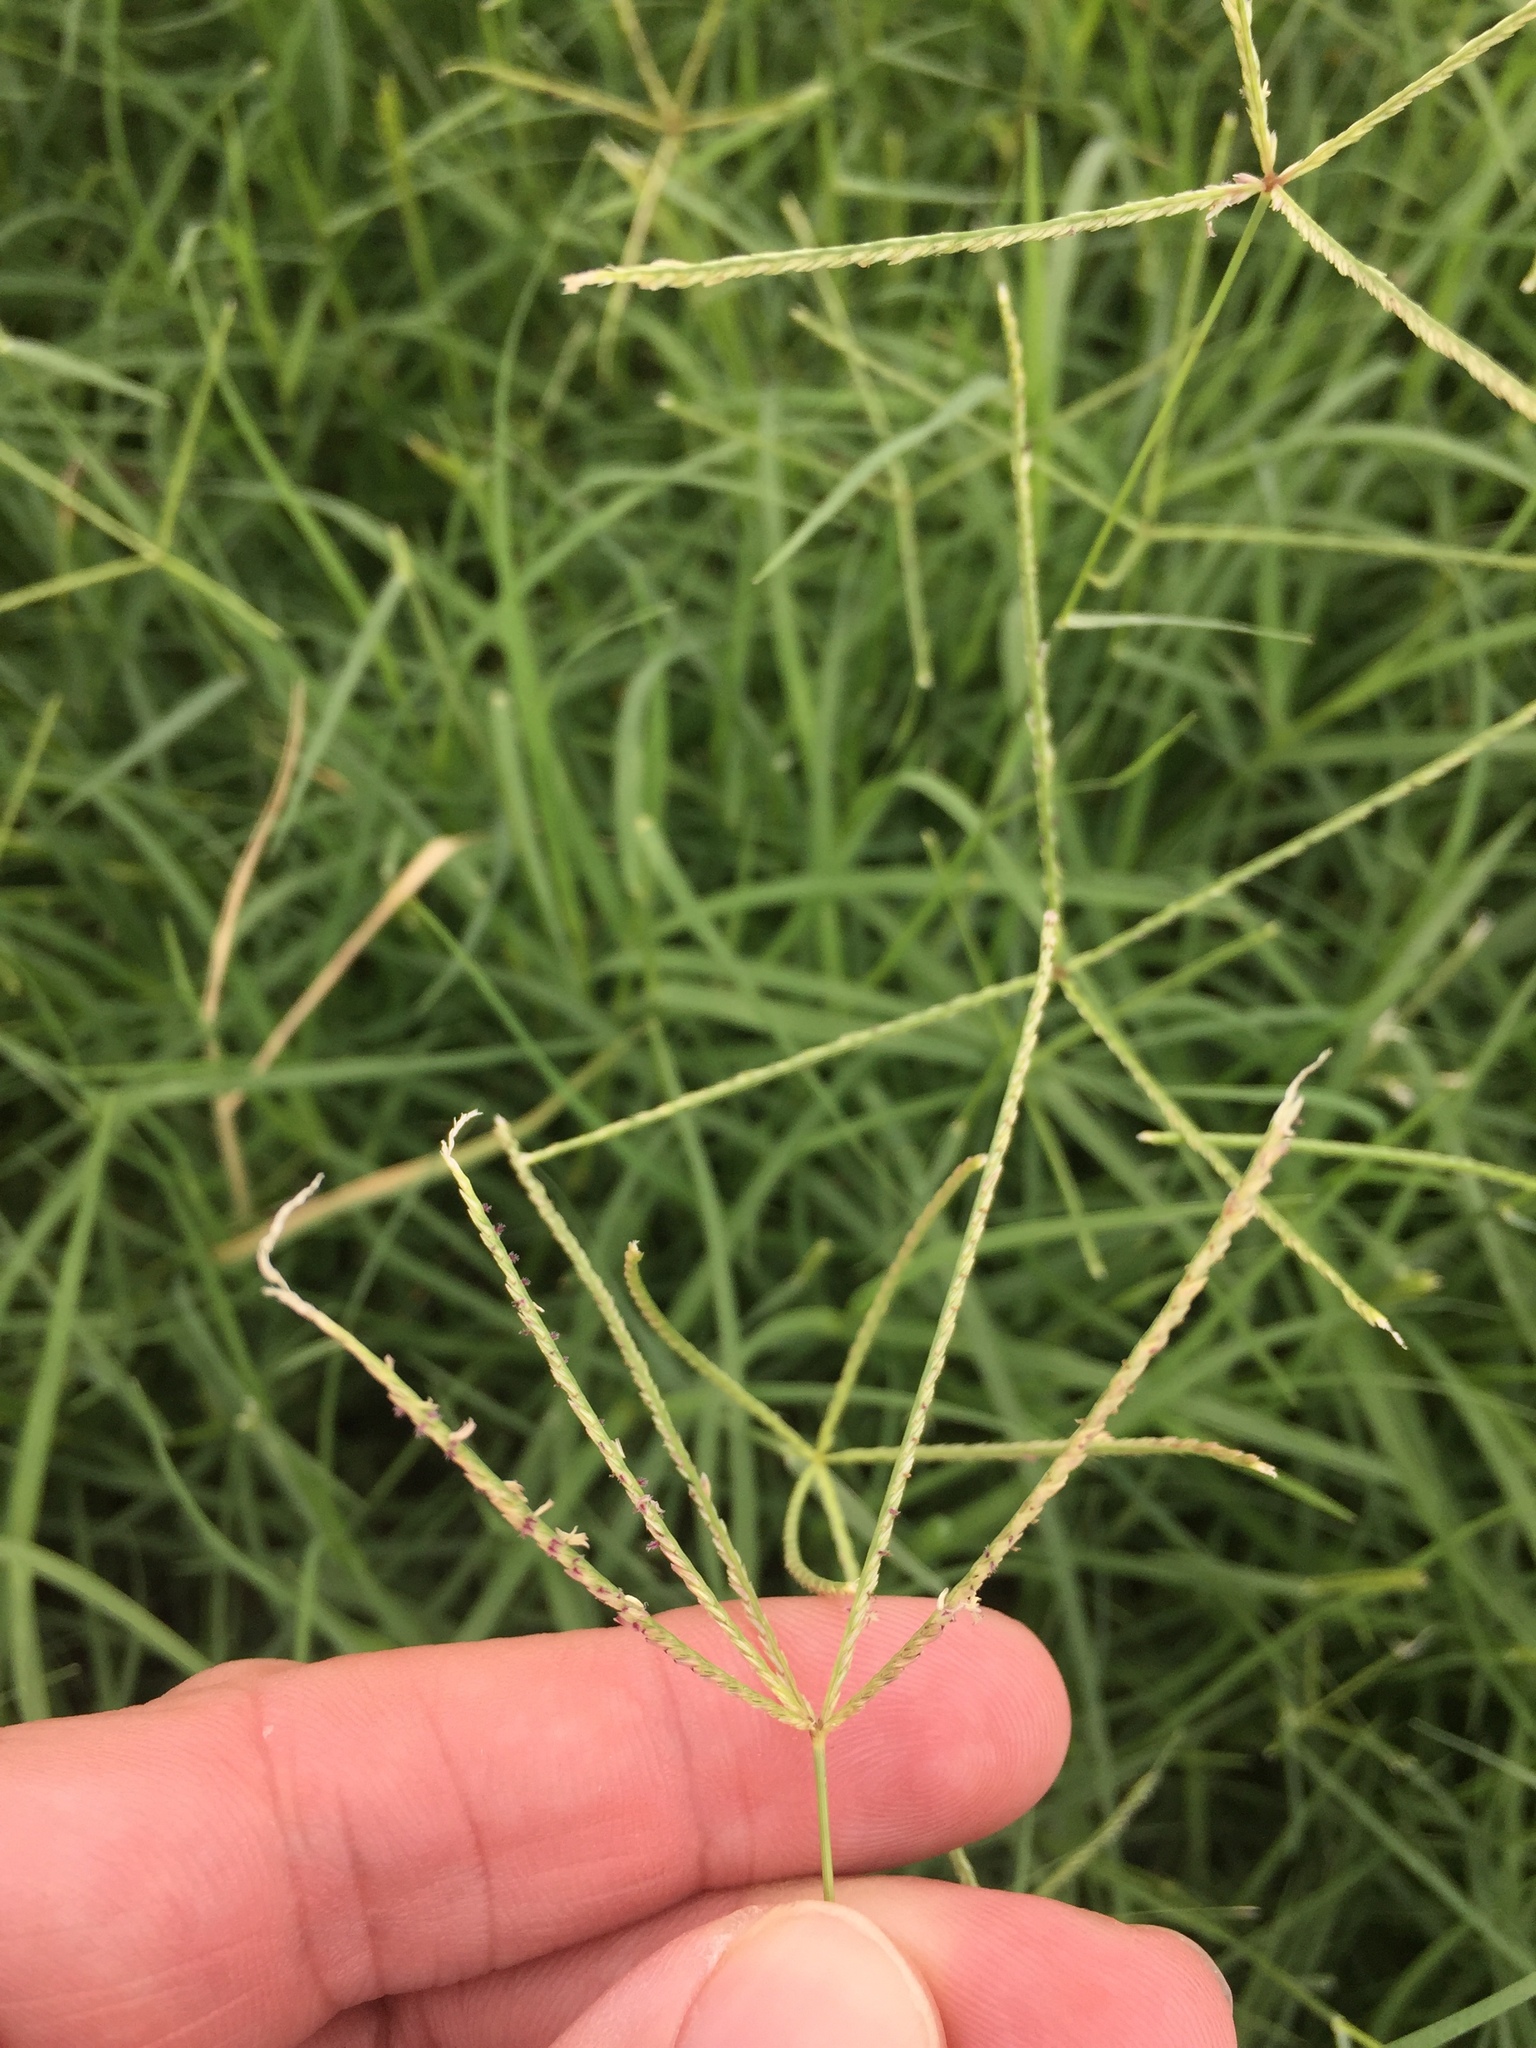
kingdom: Plantae
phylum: Tracheophyta
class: Liliopsida
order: Poales
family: Poaceae
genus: Cynodon
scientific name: Cynodon dactylon
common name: Bermuda grass
